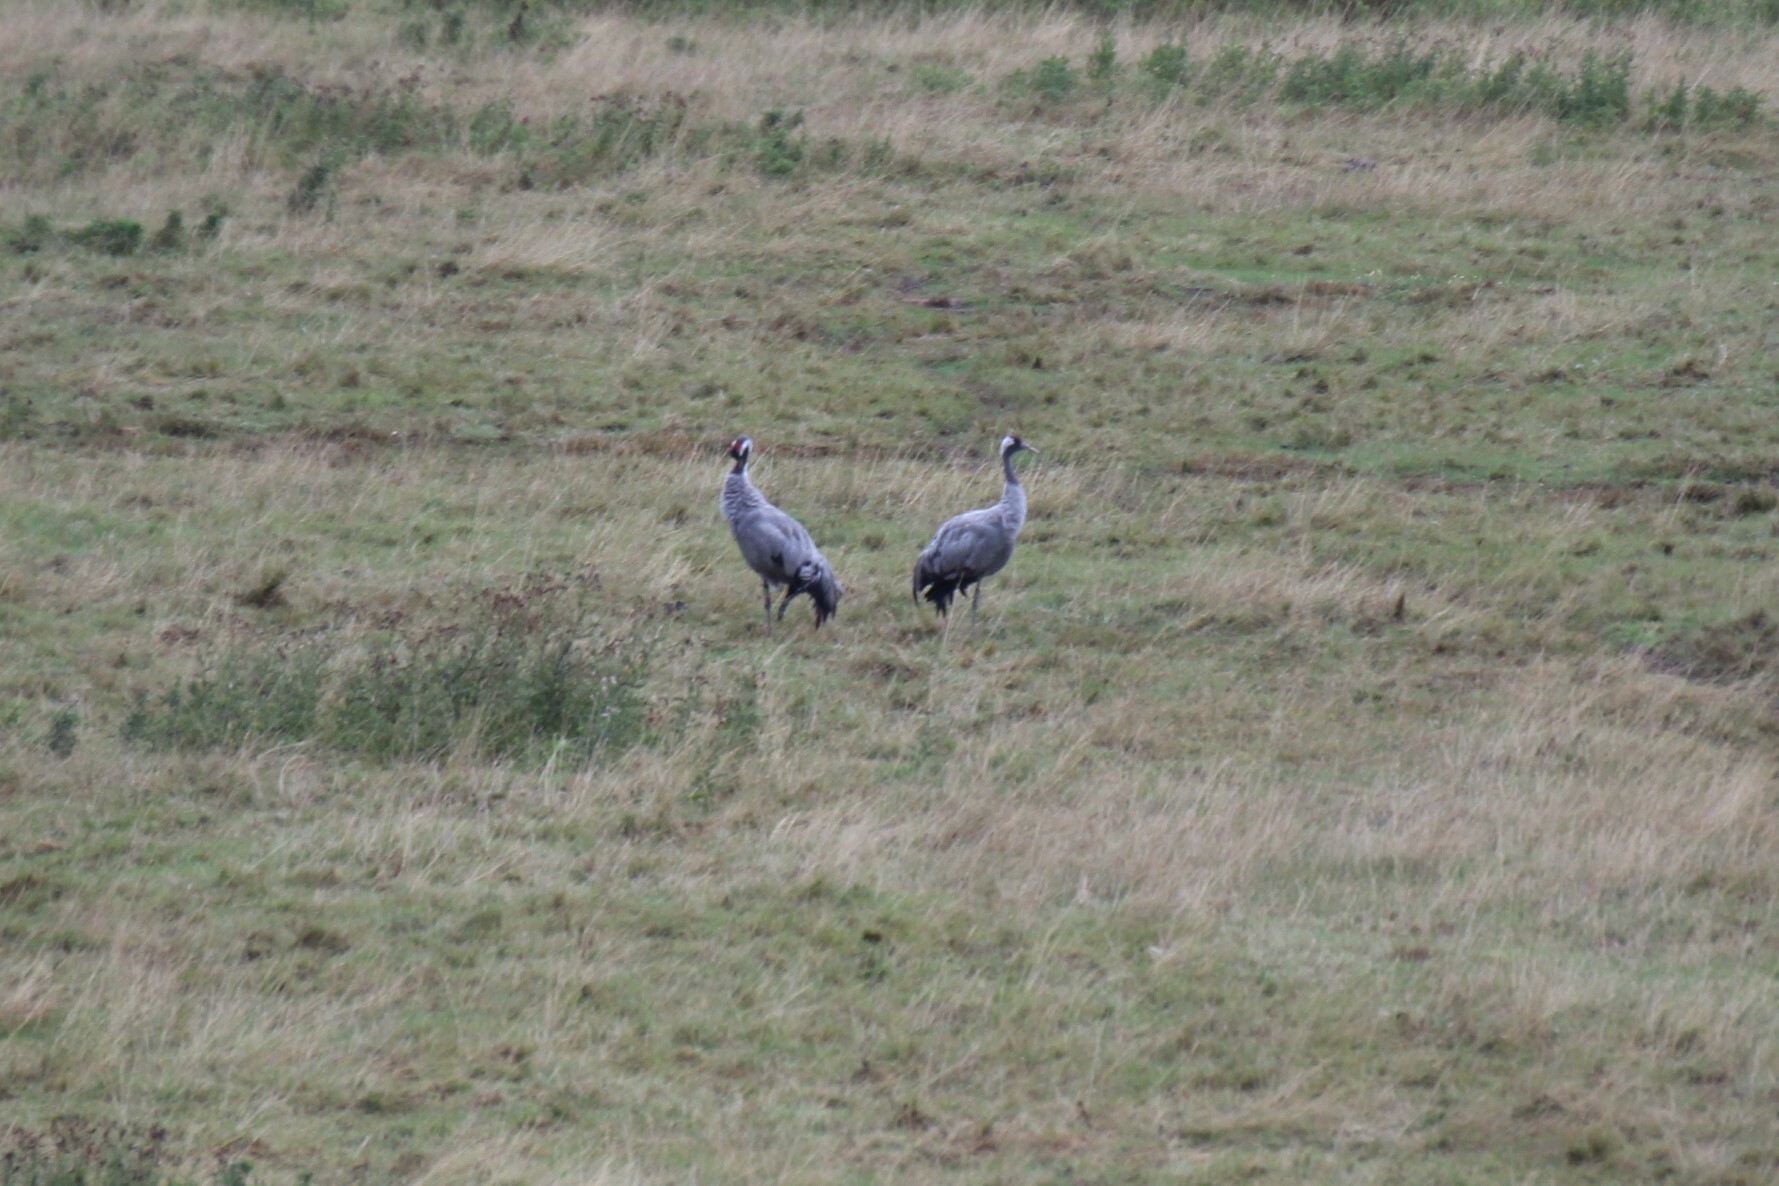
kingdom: Animalia
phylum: Chordata
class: Aves
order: Gruiformes
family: Gruidae
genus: Grus
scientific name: Grus grus
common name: Common crane
